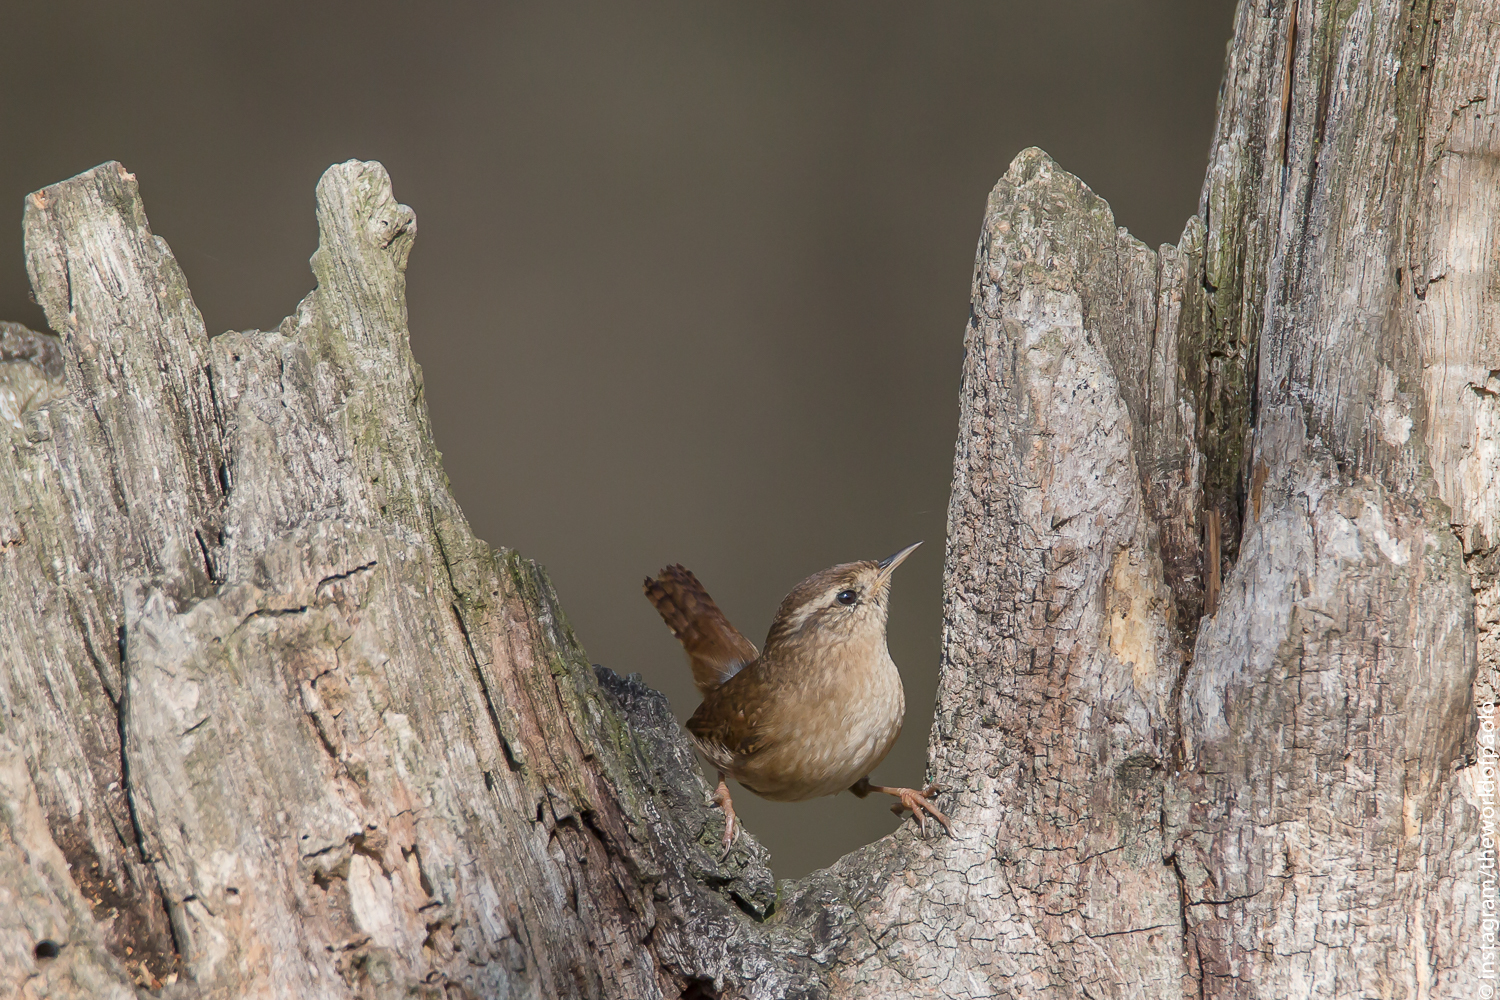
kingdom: Animalia
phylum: Chordata
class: Aves
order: Passeriformes
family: Troglodytidae
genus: Troglodytes
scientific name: Troglodytes troglodytes
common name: Eurasian wren
